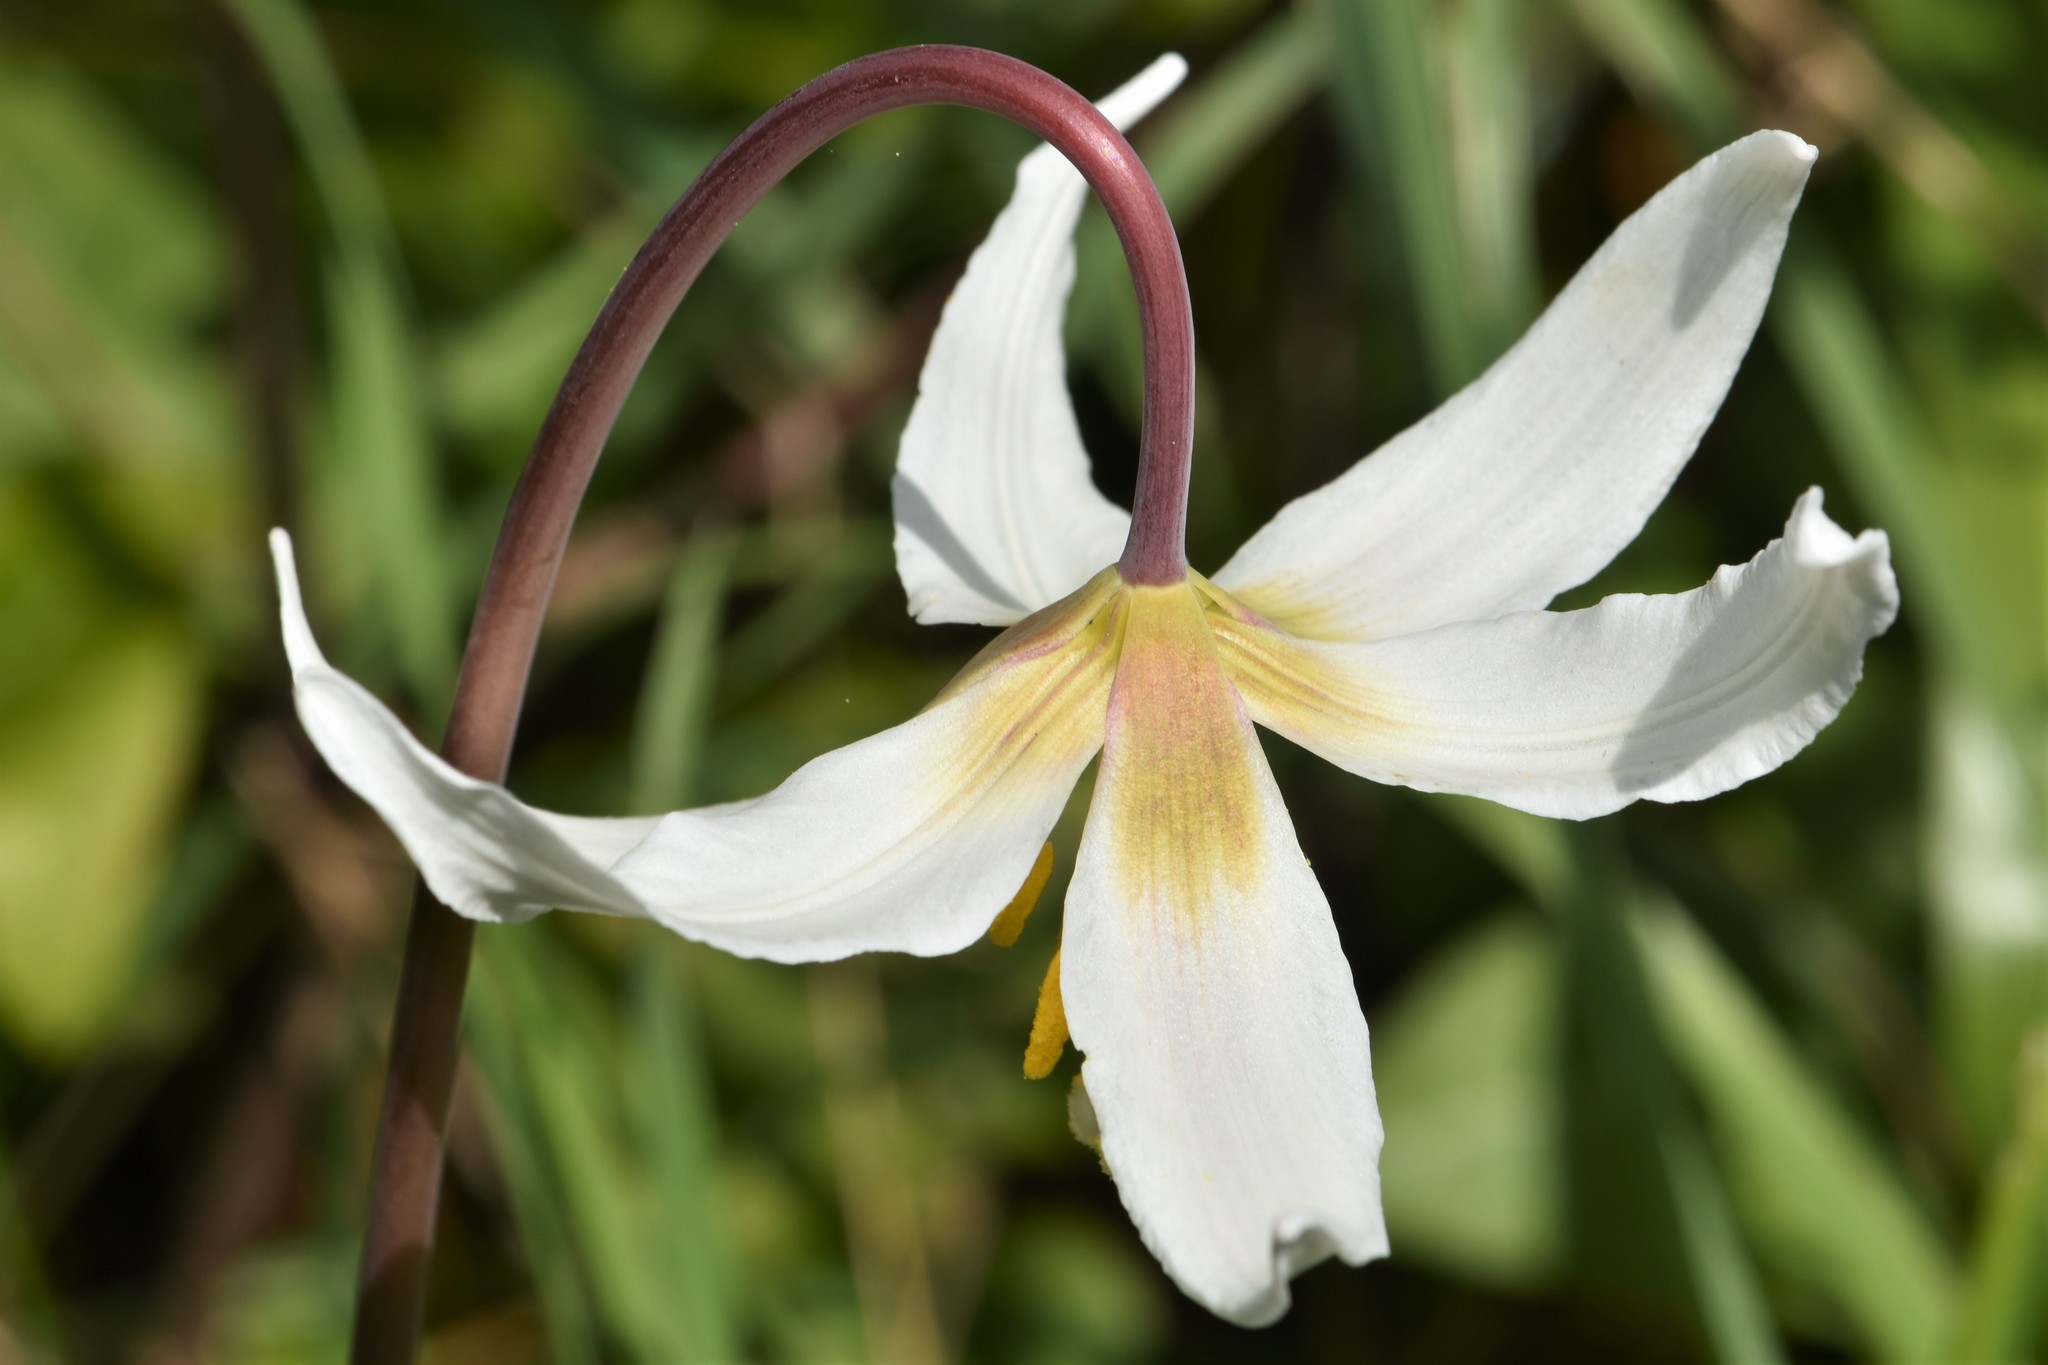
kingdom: Plantae
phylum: Tracheophyta
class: Liliopsida
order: Liliales
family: Liliaceae
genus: Erythronium
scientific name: Erythronium oregonum
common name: Giant adder's-tongue
